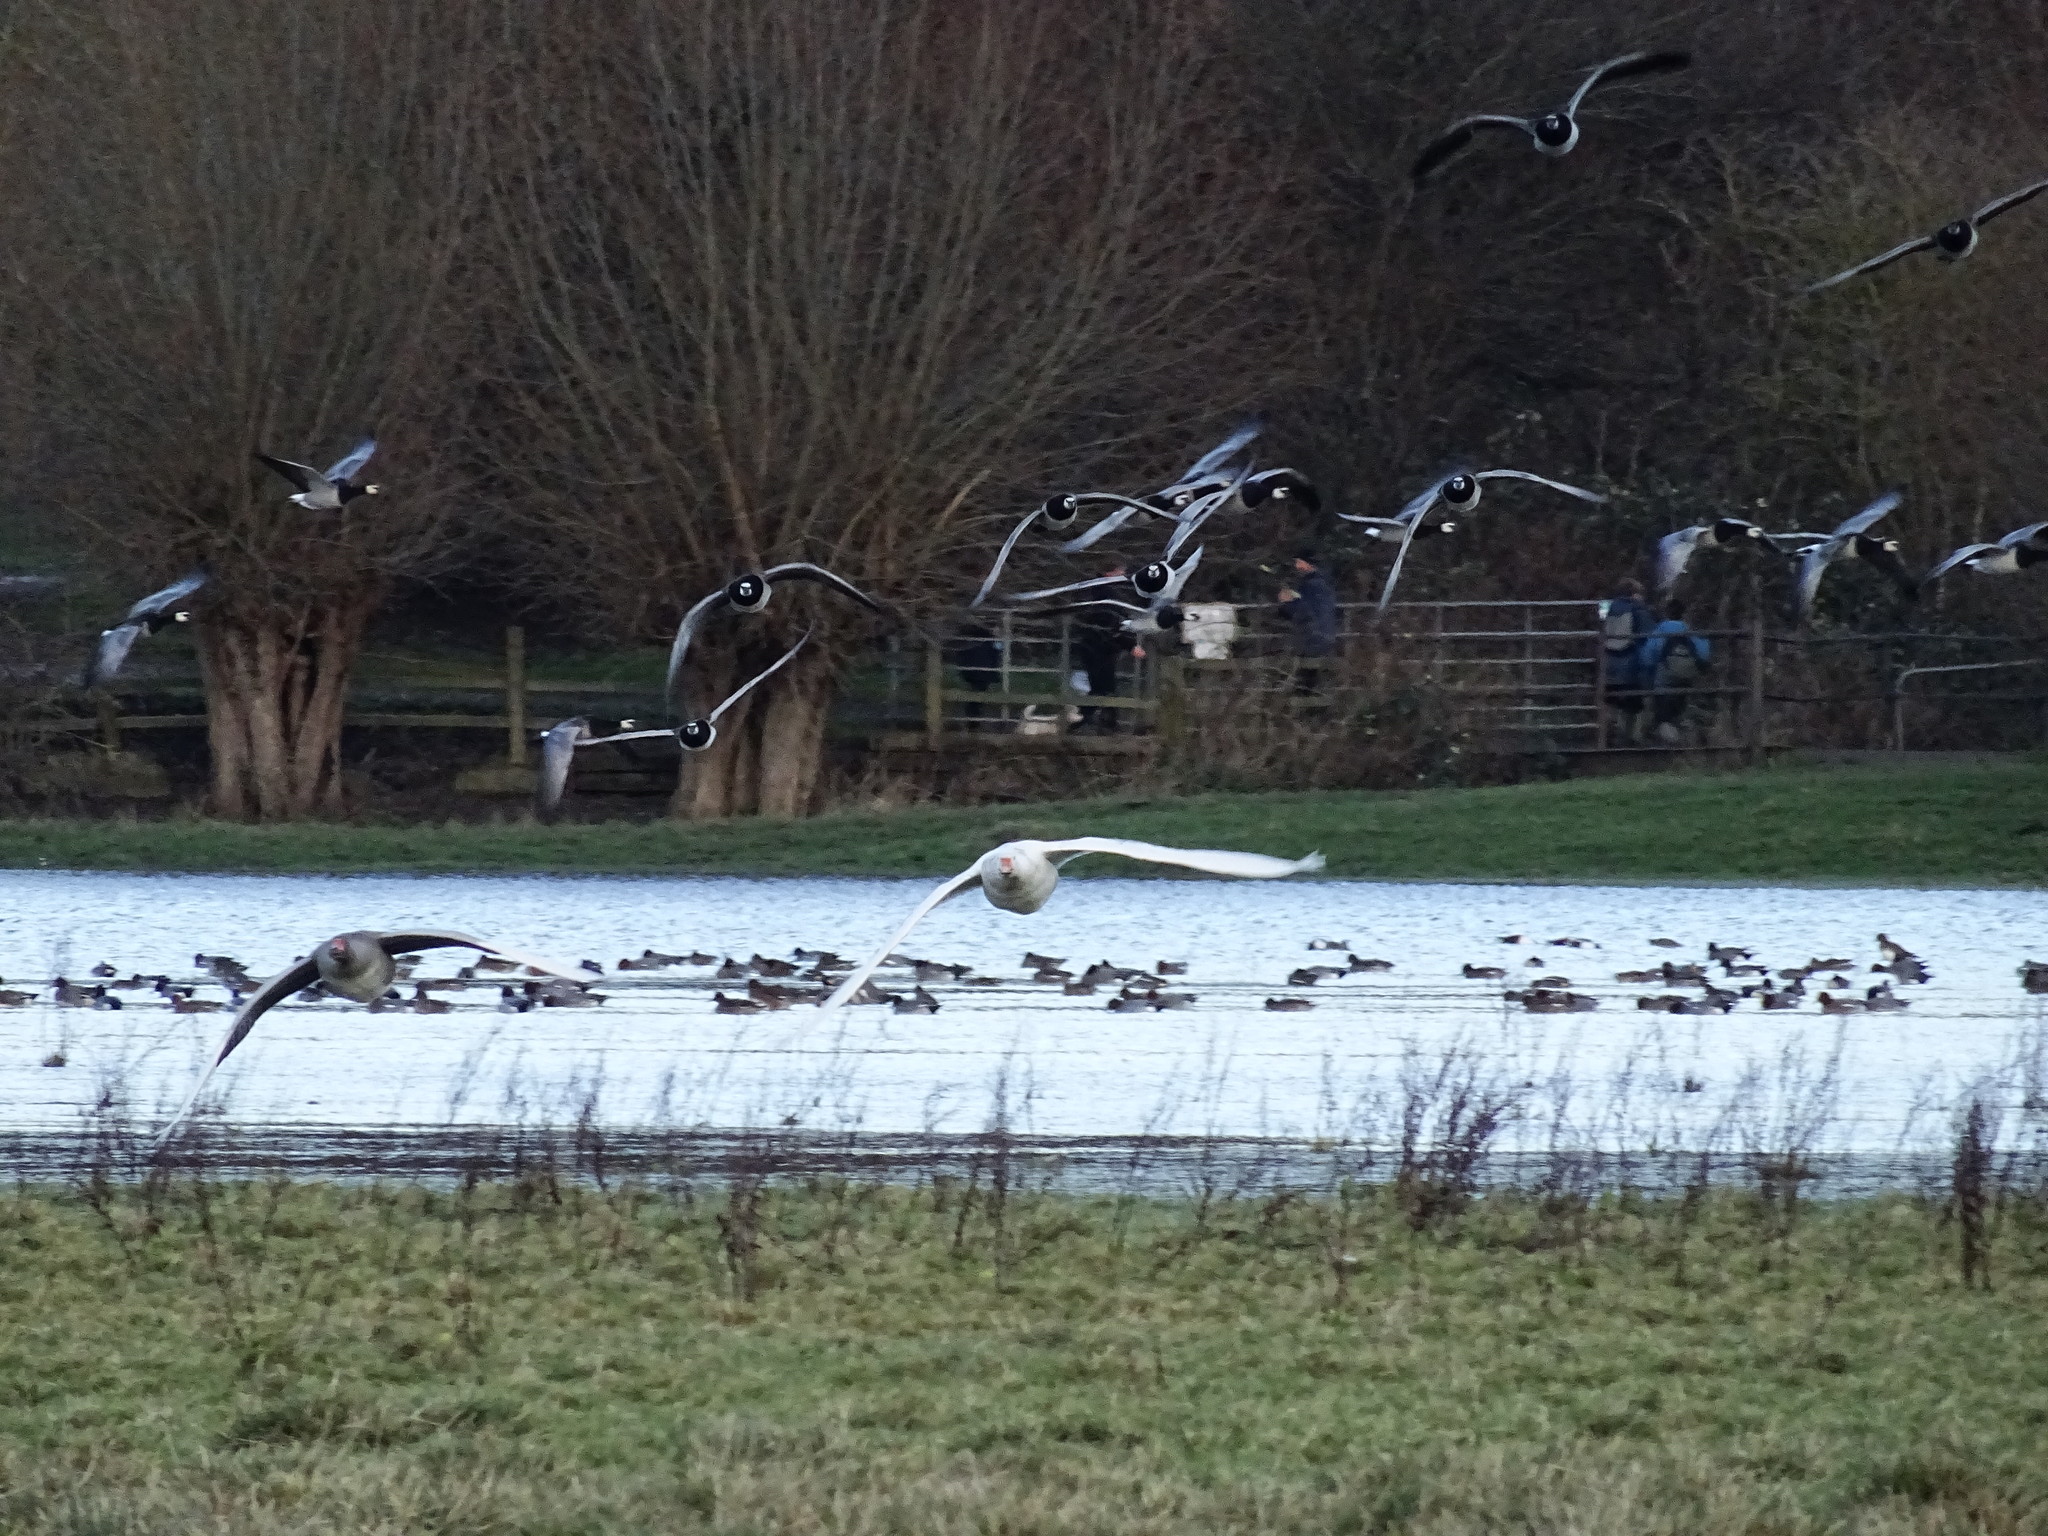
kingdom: Animalia
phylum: Chordata
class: Aves
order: Anseriformes
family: Anatidae
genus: Branta
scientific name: Branta leucopsis
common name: Barnacle goose
